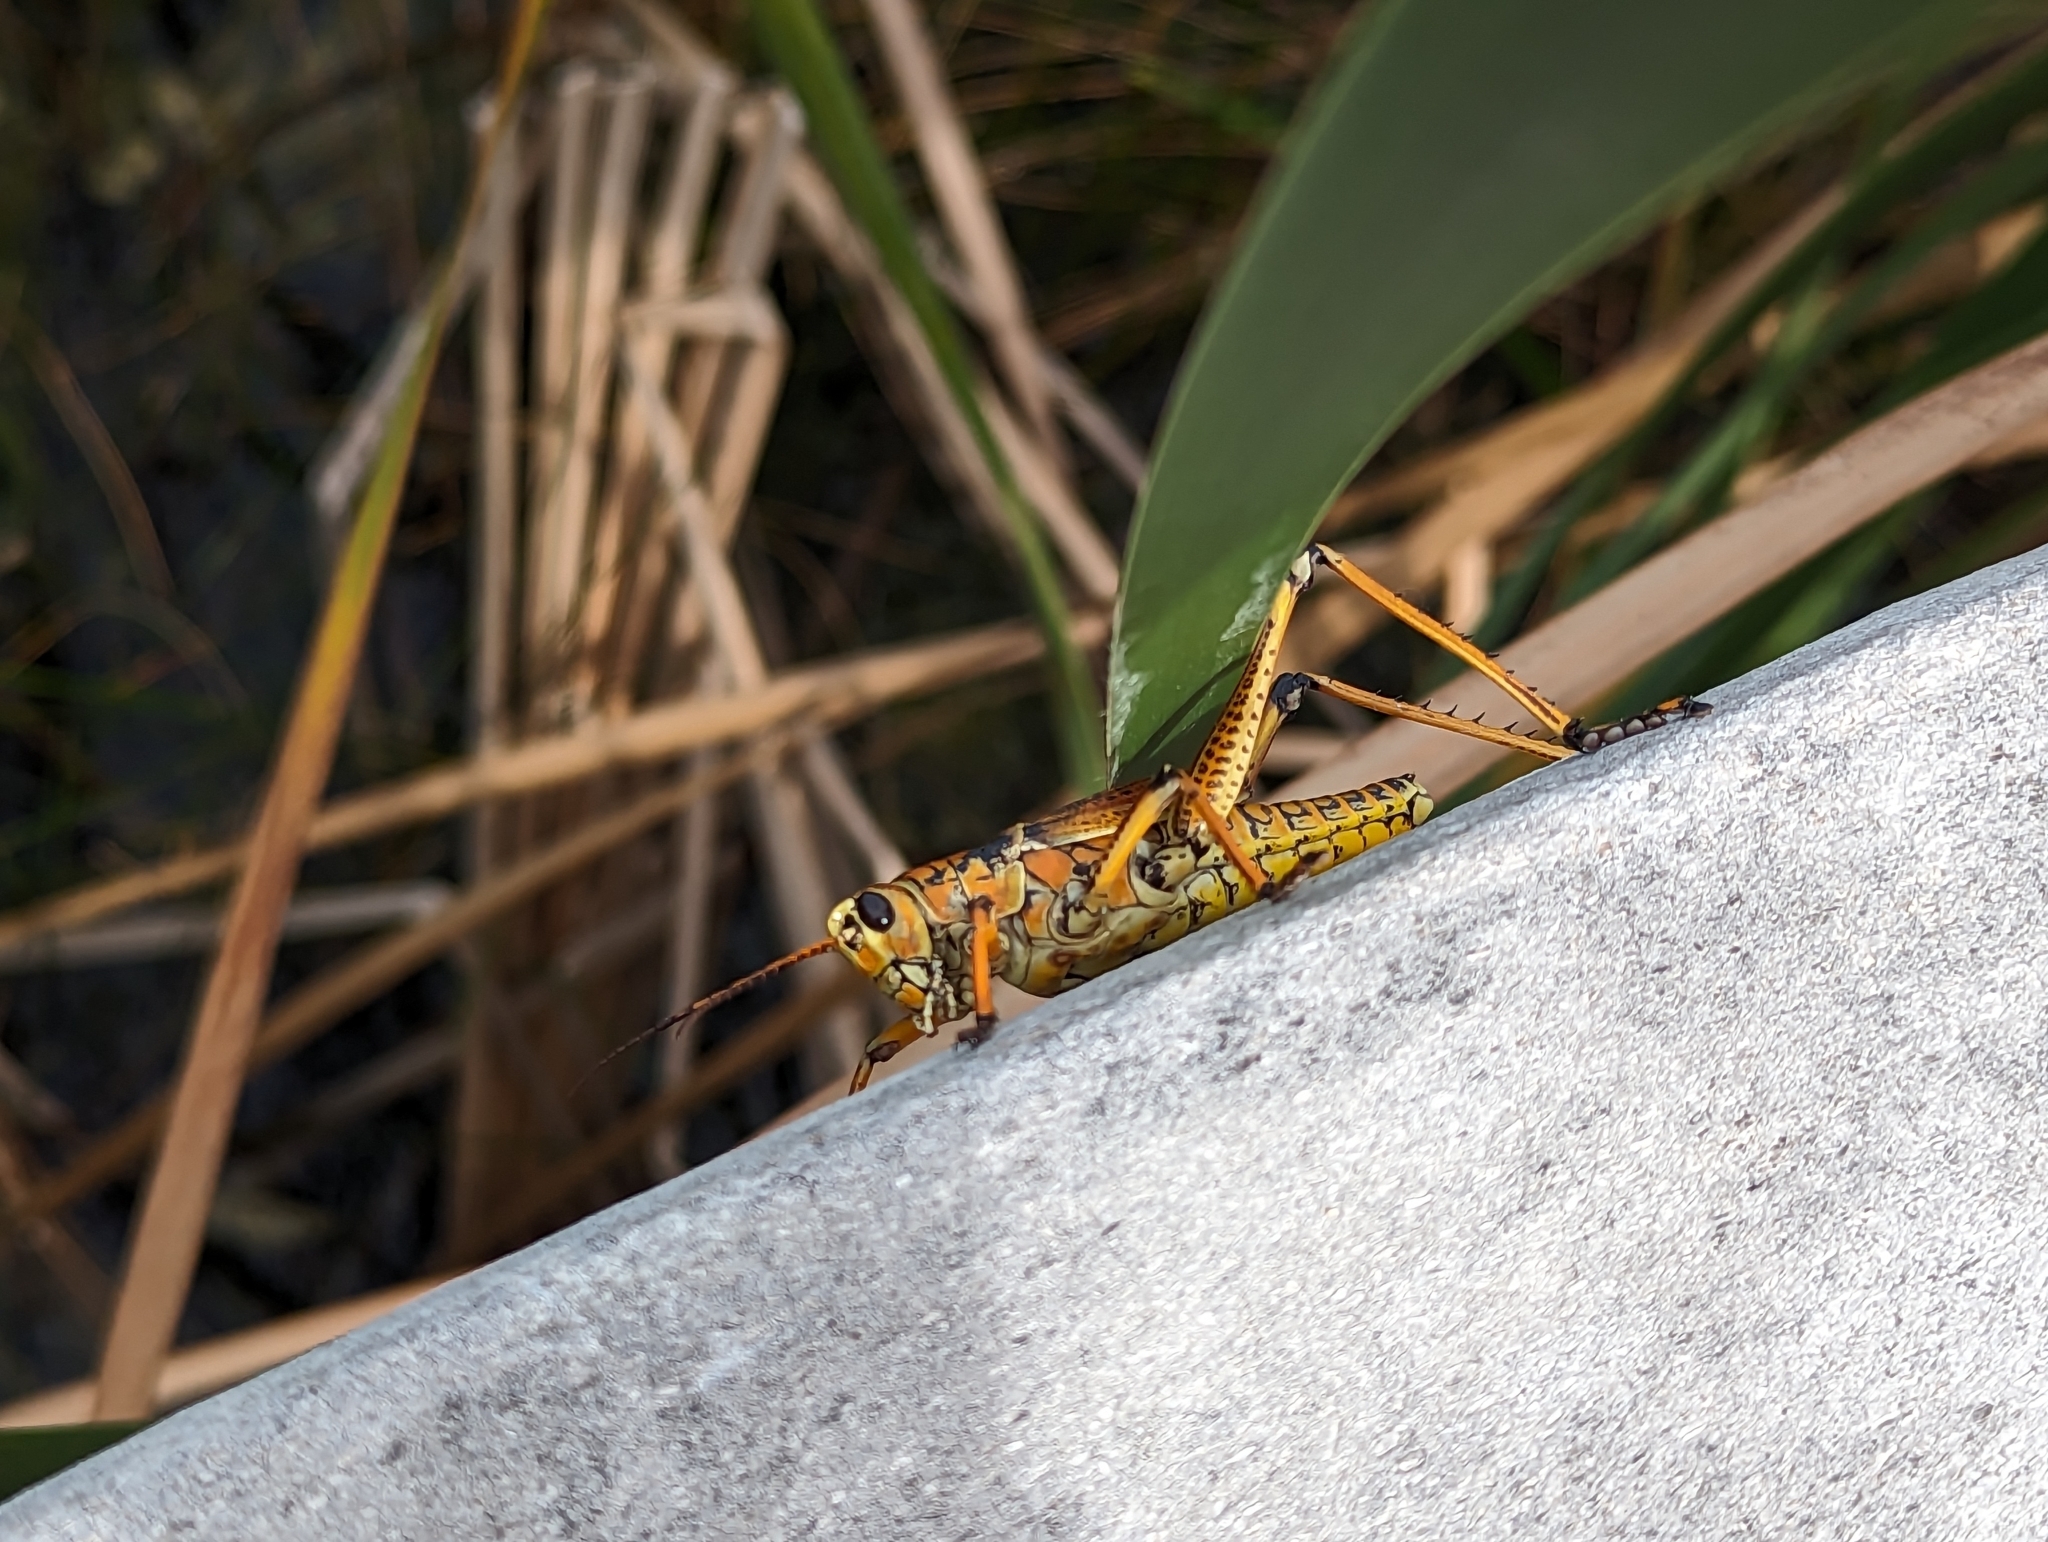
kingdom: Animalia
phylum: Arthropoda
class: Insecta
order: Orthoptera
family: Romaleidae
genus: Romalea
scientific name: Romalea microptera
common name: Eastern lubber grasshopper
